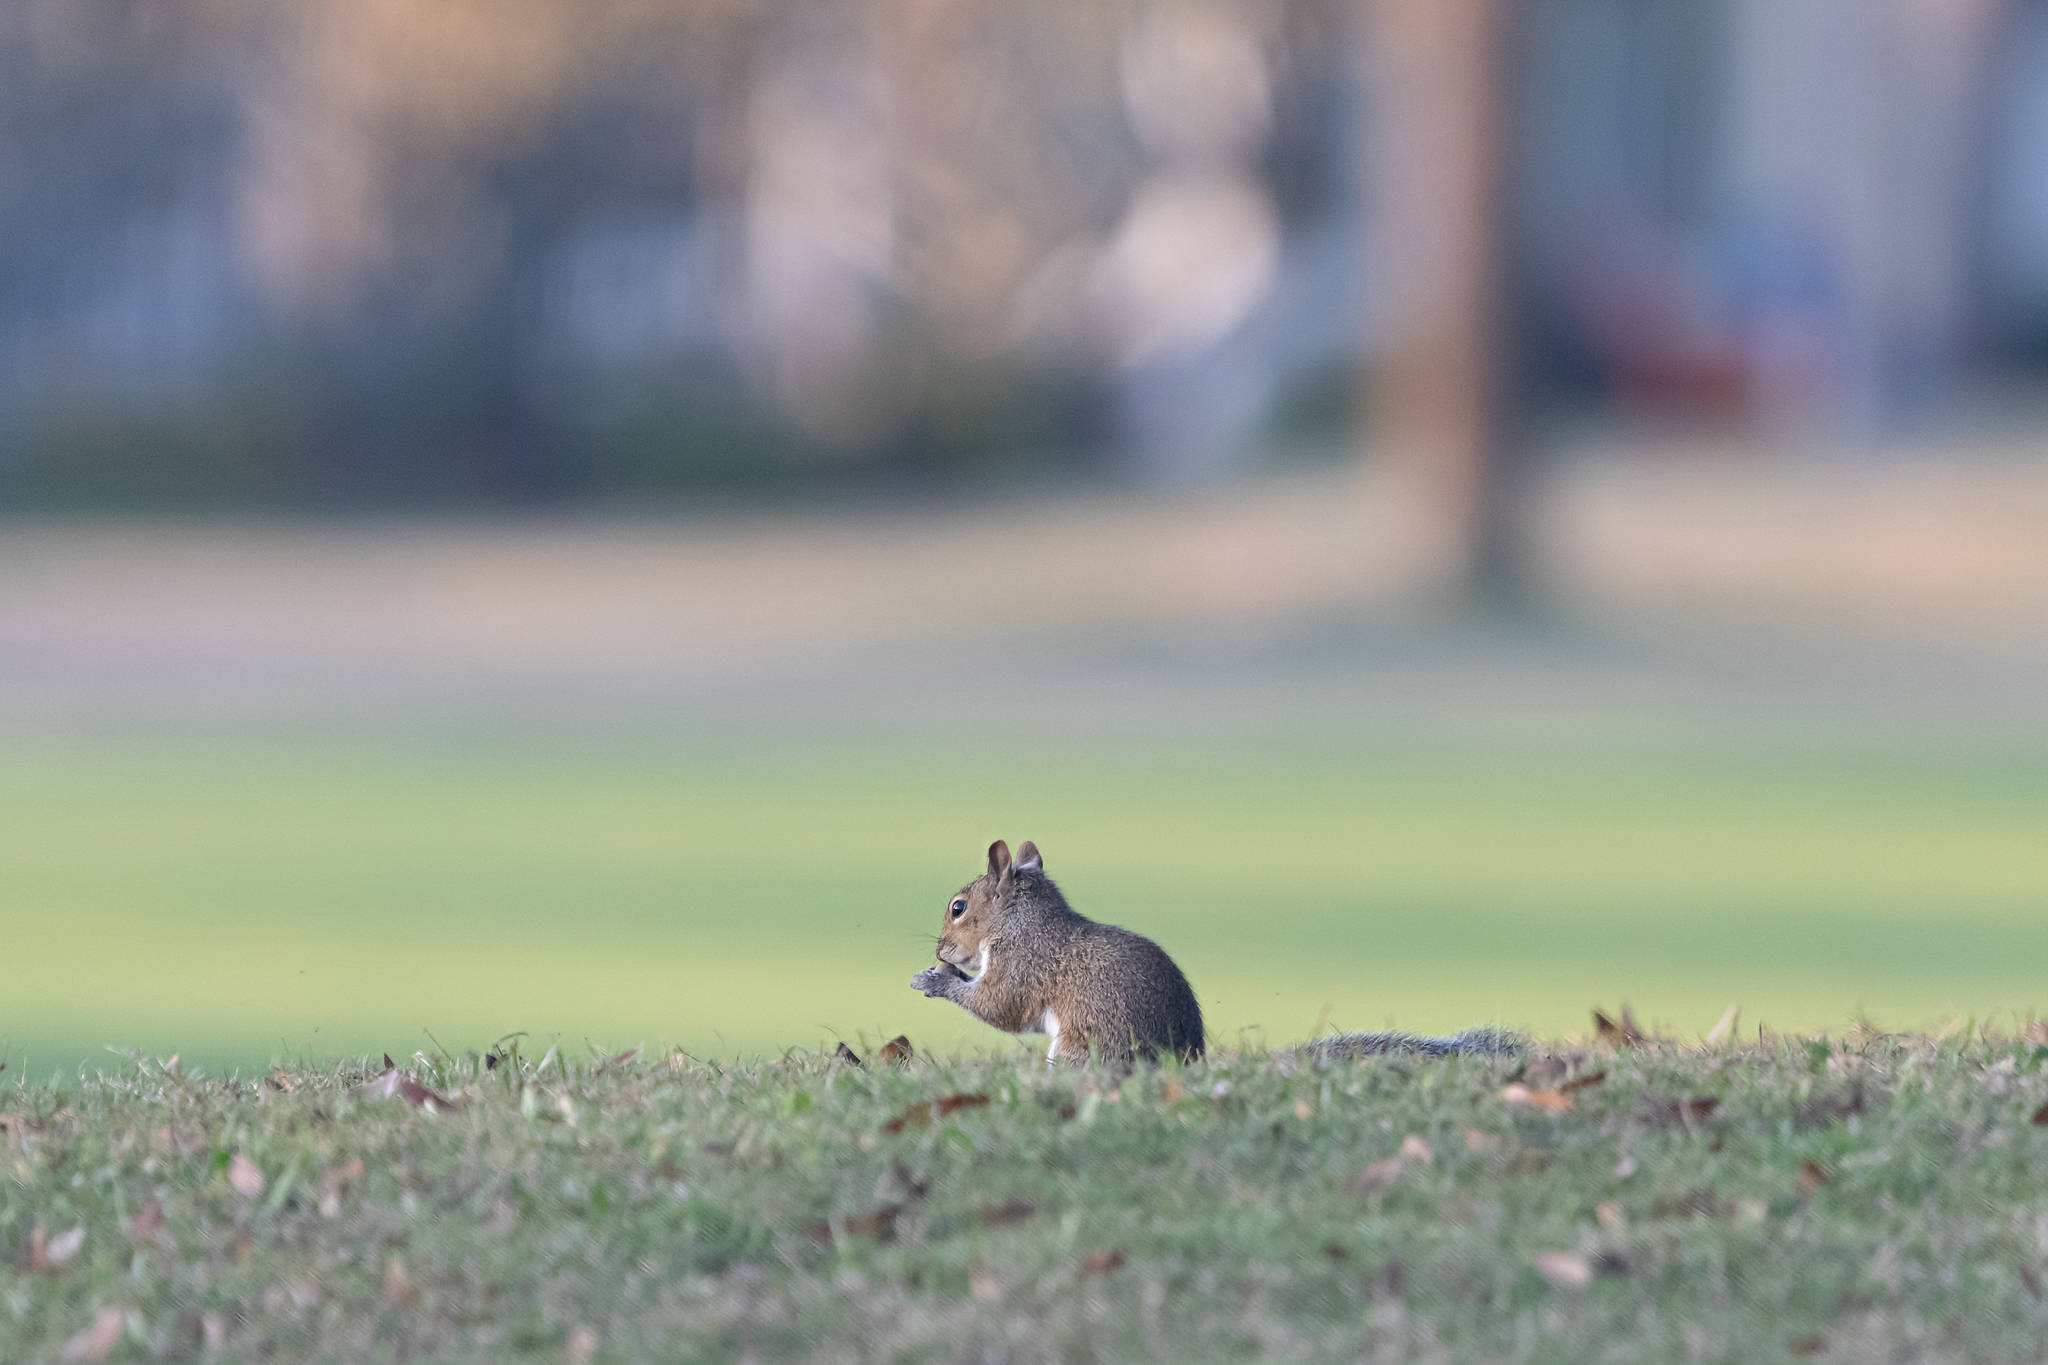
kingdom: Animalia
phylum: Chordata
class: Mammalia
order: Rodentia
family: Sciuridae
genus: Sciurus
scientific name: Sciurus carolinensis
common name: Eastern gray squirrel
